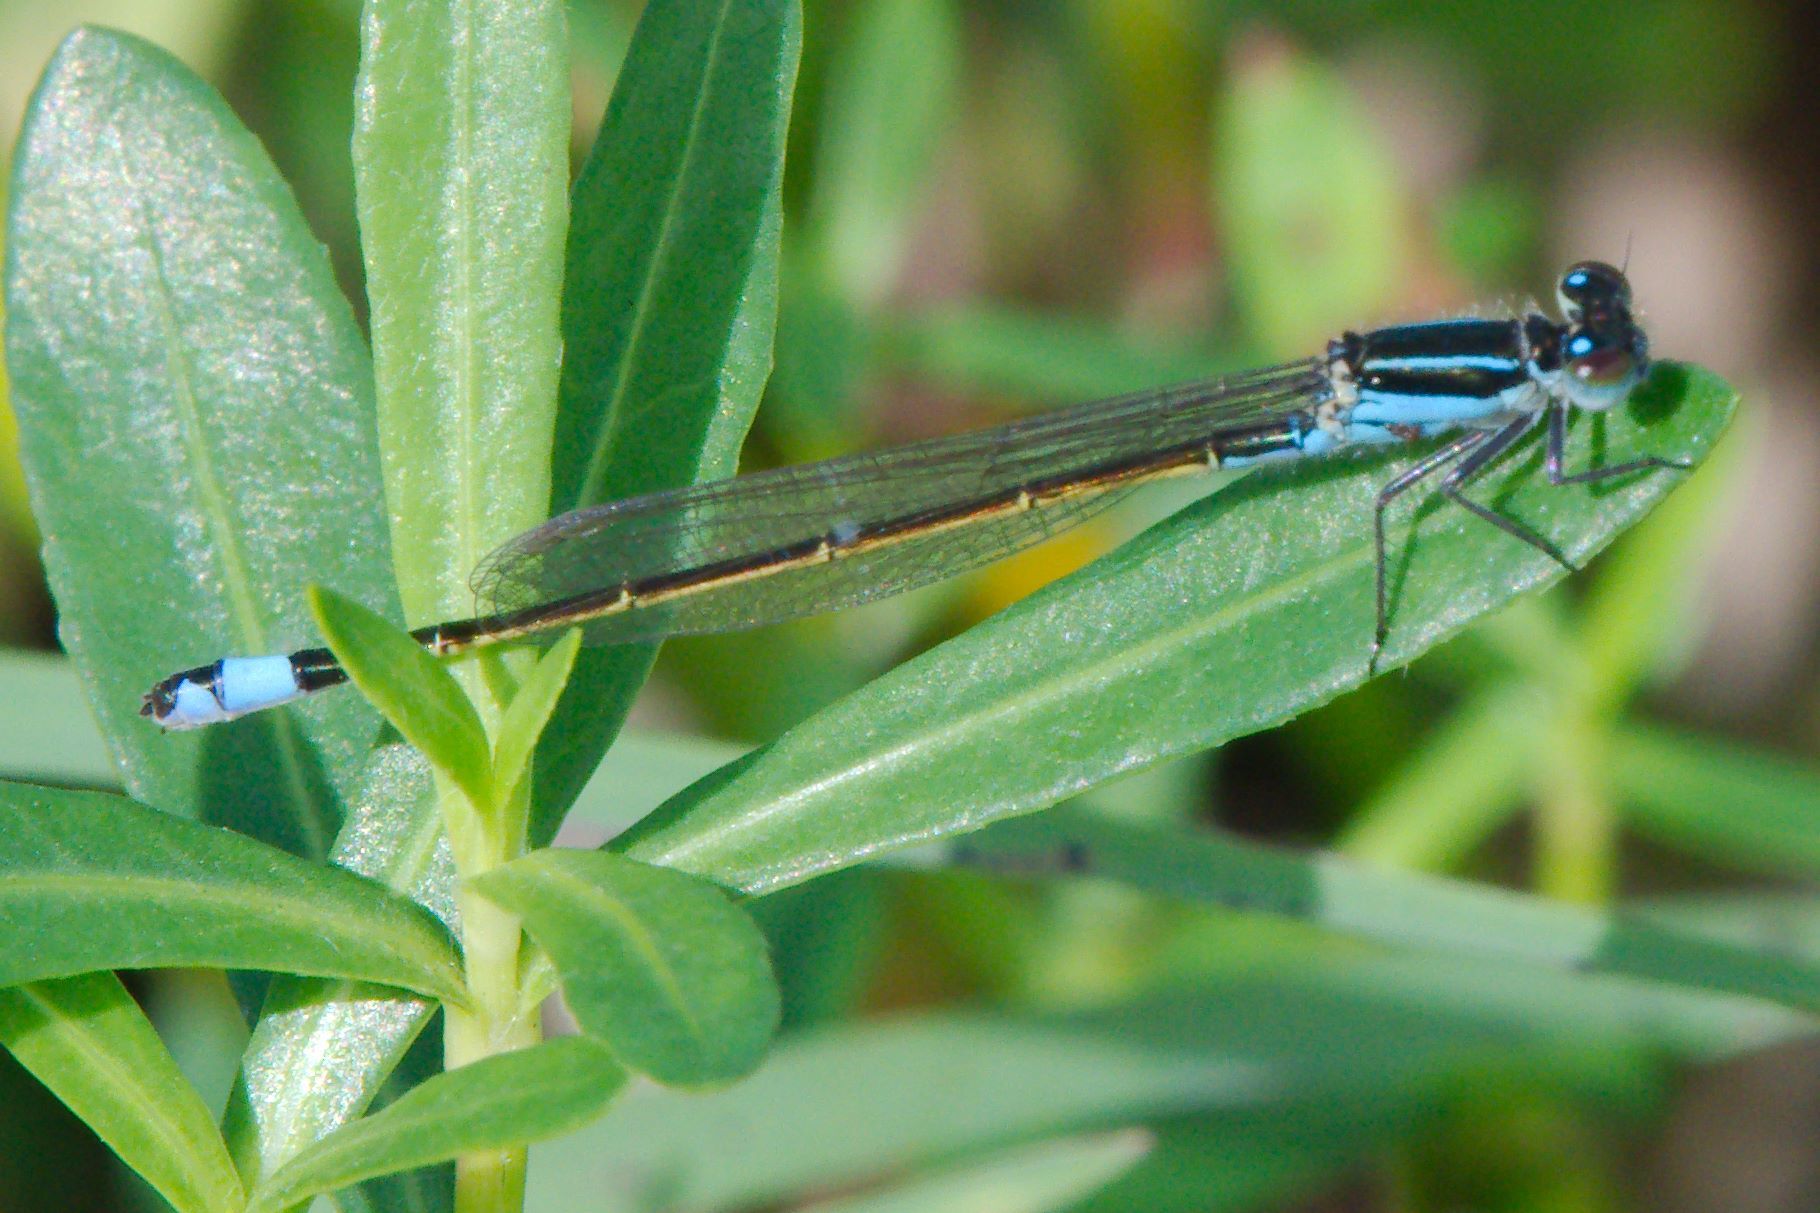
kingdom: Animalia
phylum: Arthropoda
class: Insecta
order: Odonata
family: Coenagrionidae
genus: Ischnura
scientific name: Ischnura ramburii
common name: Rambur's forktail
